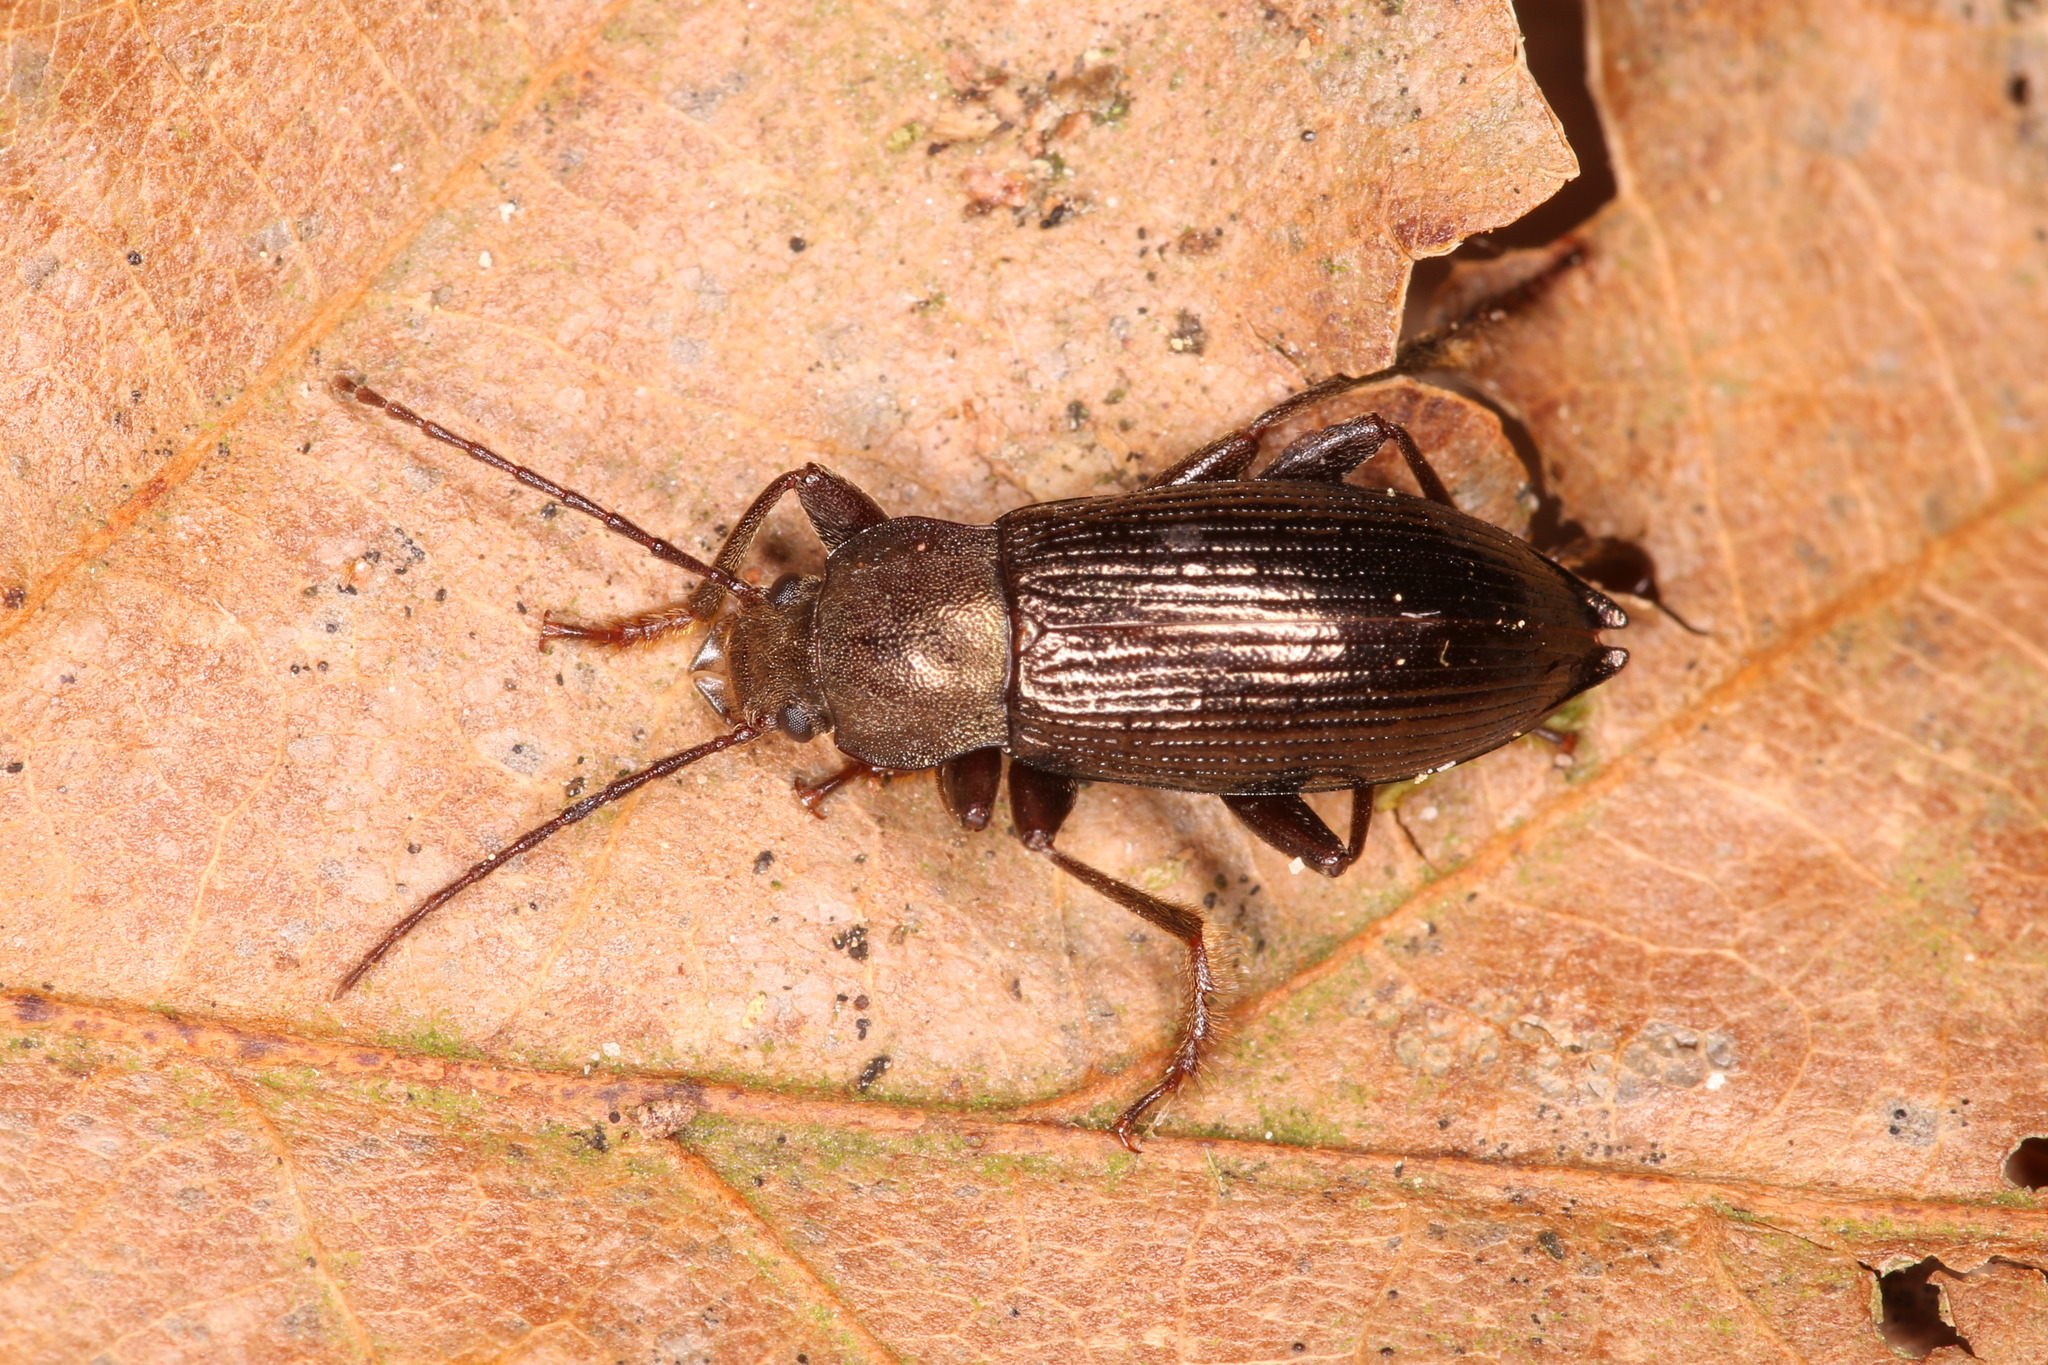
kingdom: Animalia
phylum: Arthropoda
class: Insecta
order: Coleoptera
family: Tenebrionidae
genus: Stenomax
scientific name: Stenomax aeneus
